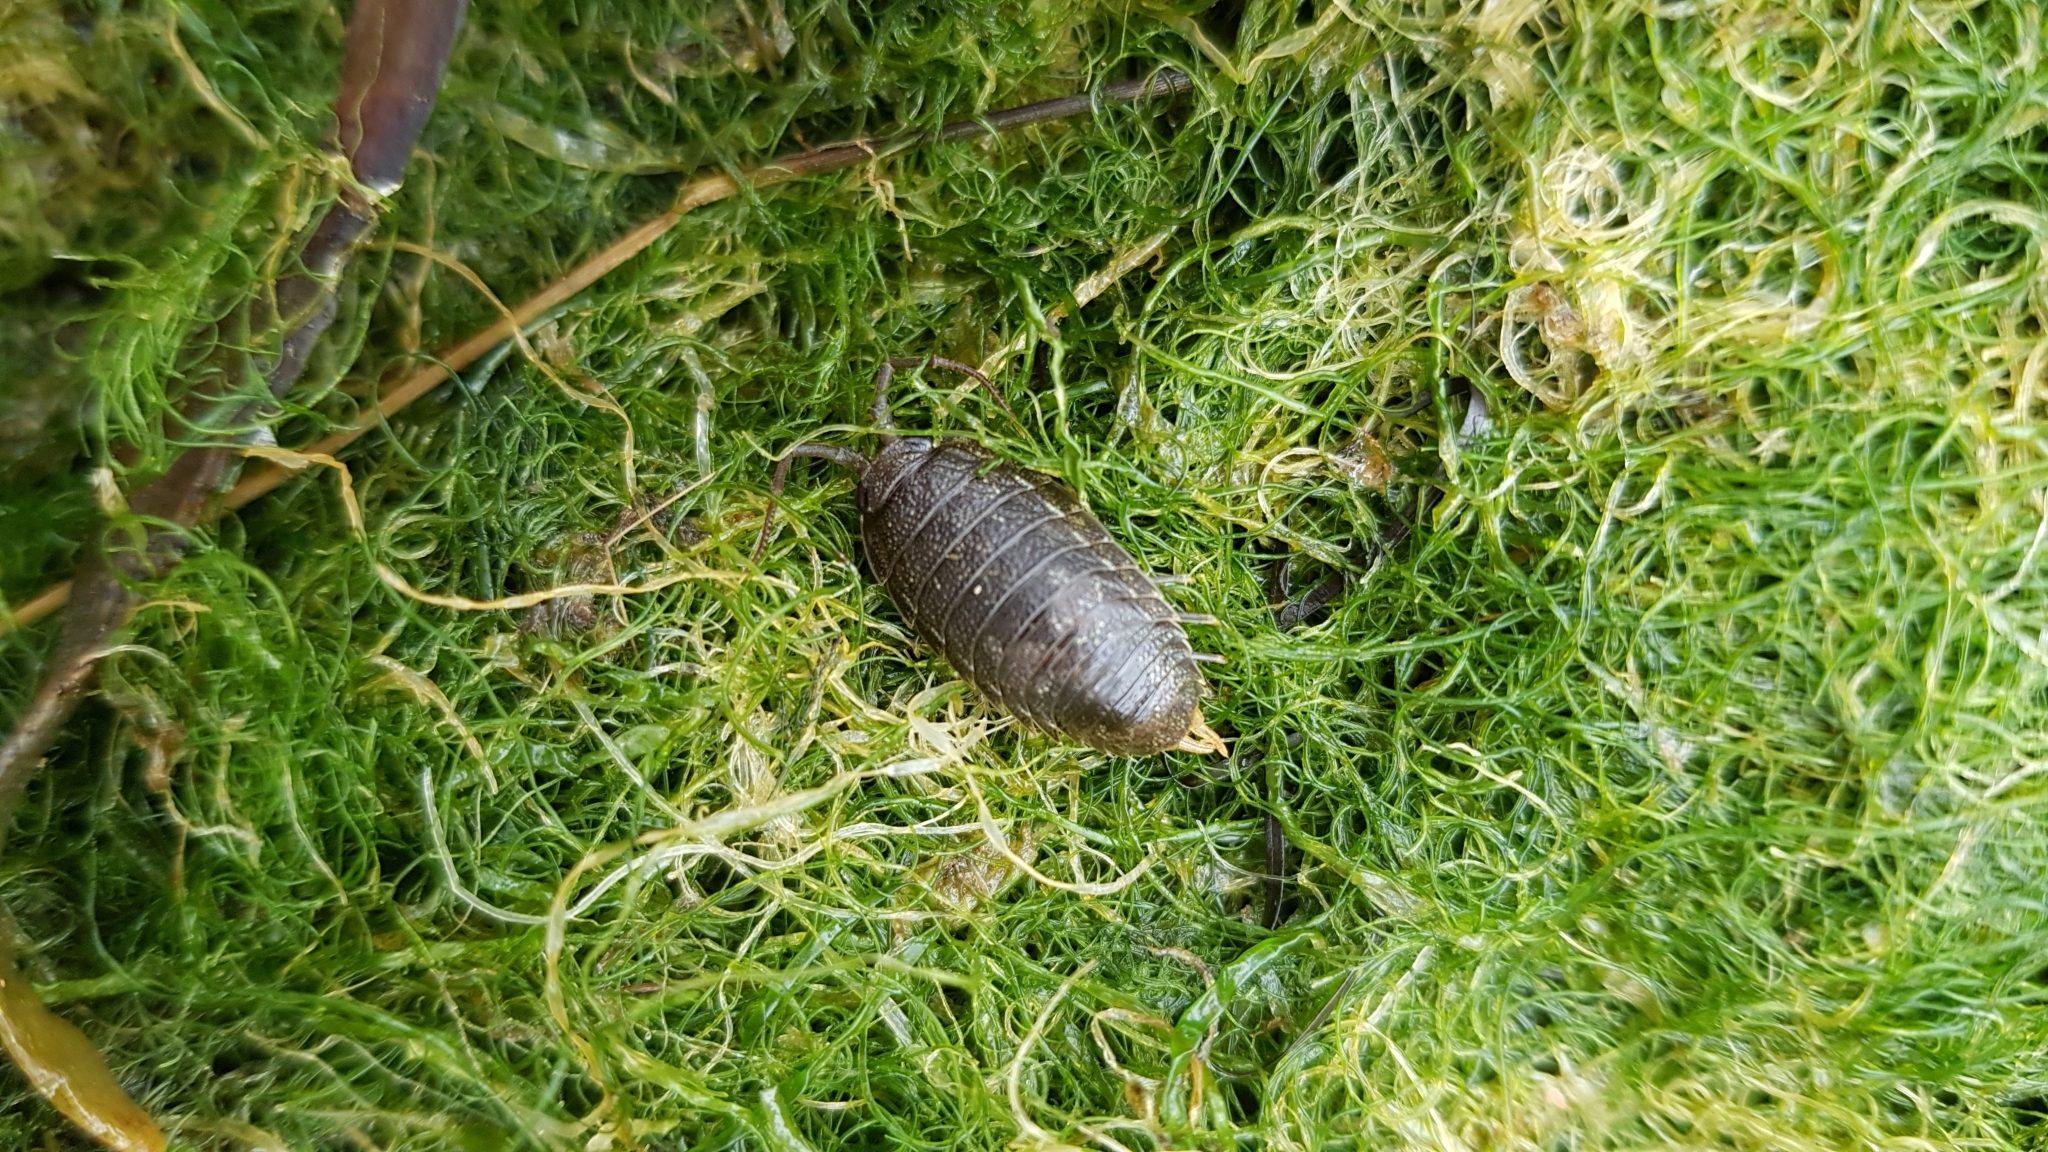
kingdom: Animalia
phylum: Arthropoda
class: Malacostraca
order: Isopoda
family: Ligiidae
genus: Ligia
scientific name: Ligia oceanica
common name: Sea slater
